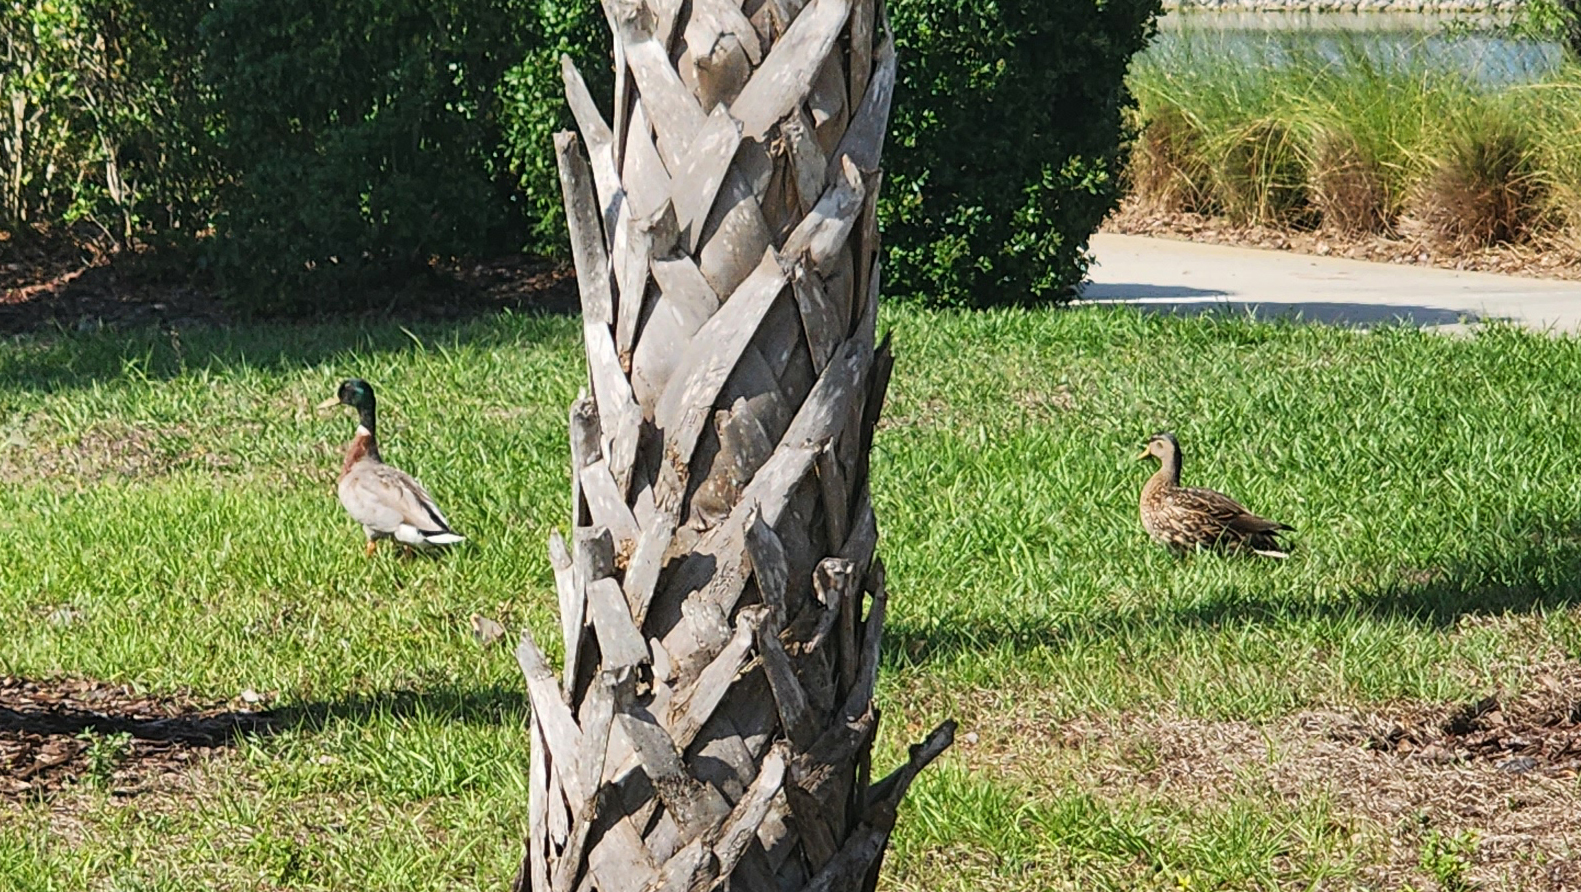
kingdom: Animalia
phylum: Chordata
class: Aves
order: Anseriformes
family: Anatidae
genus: Anas
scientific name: Anas platyrhynchos
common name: Mallard
